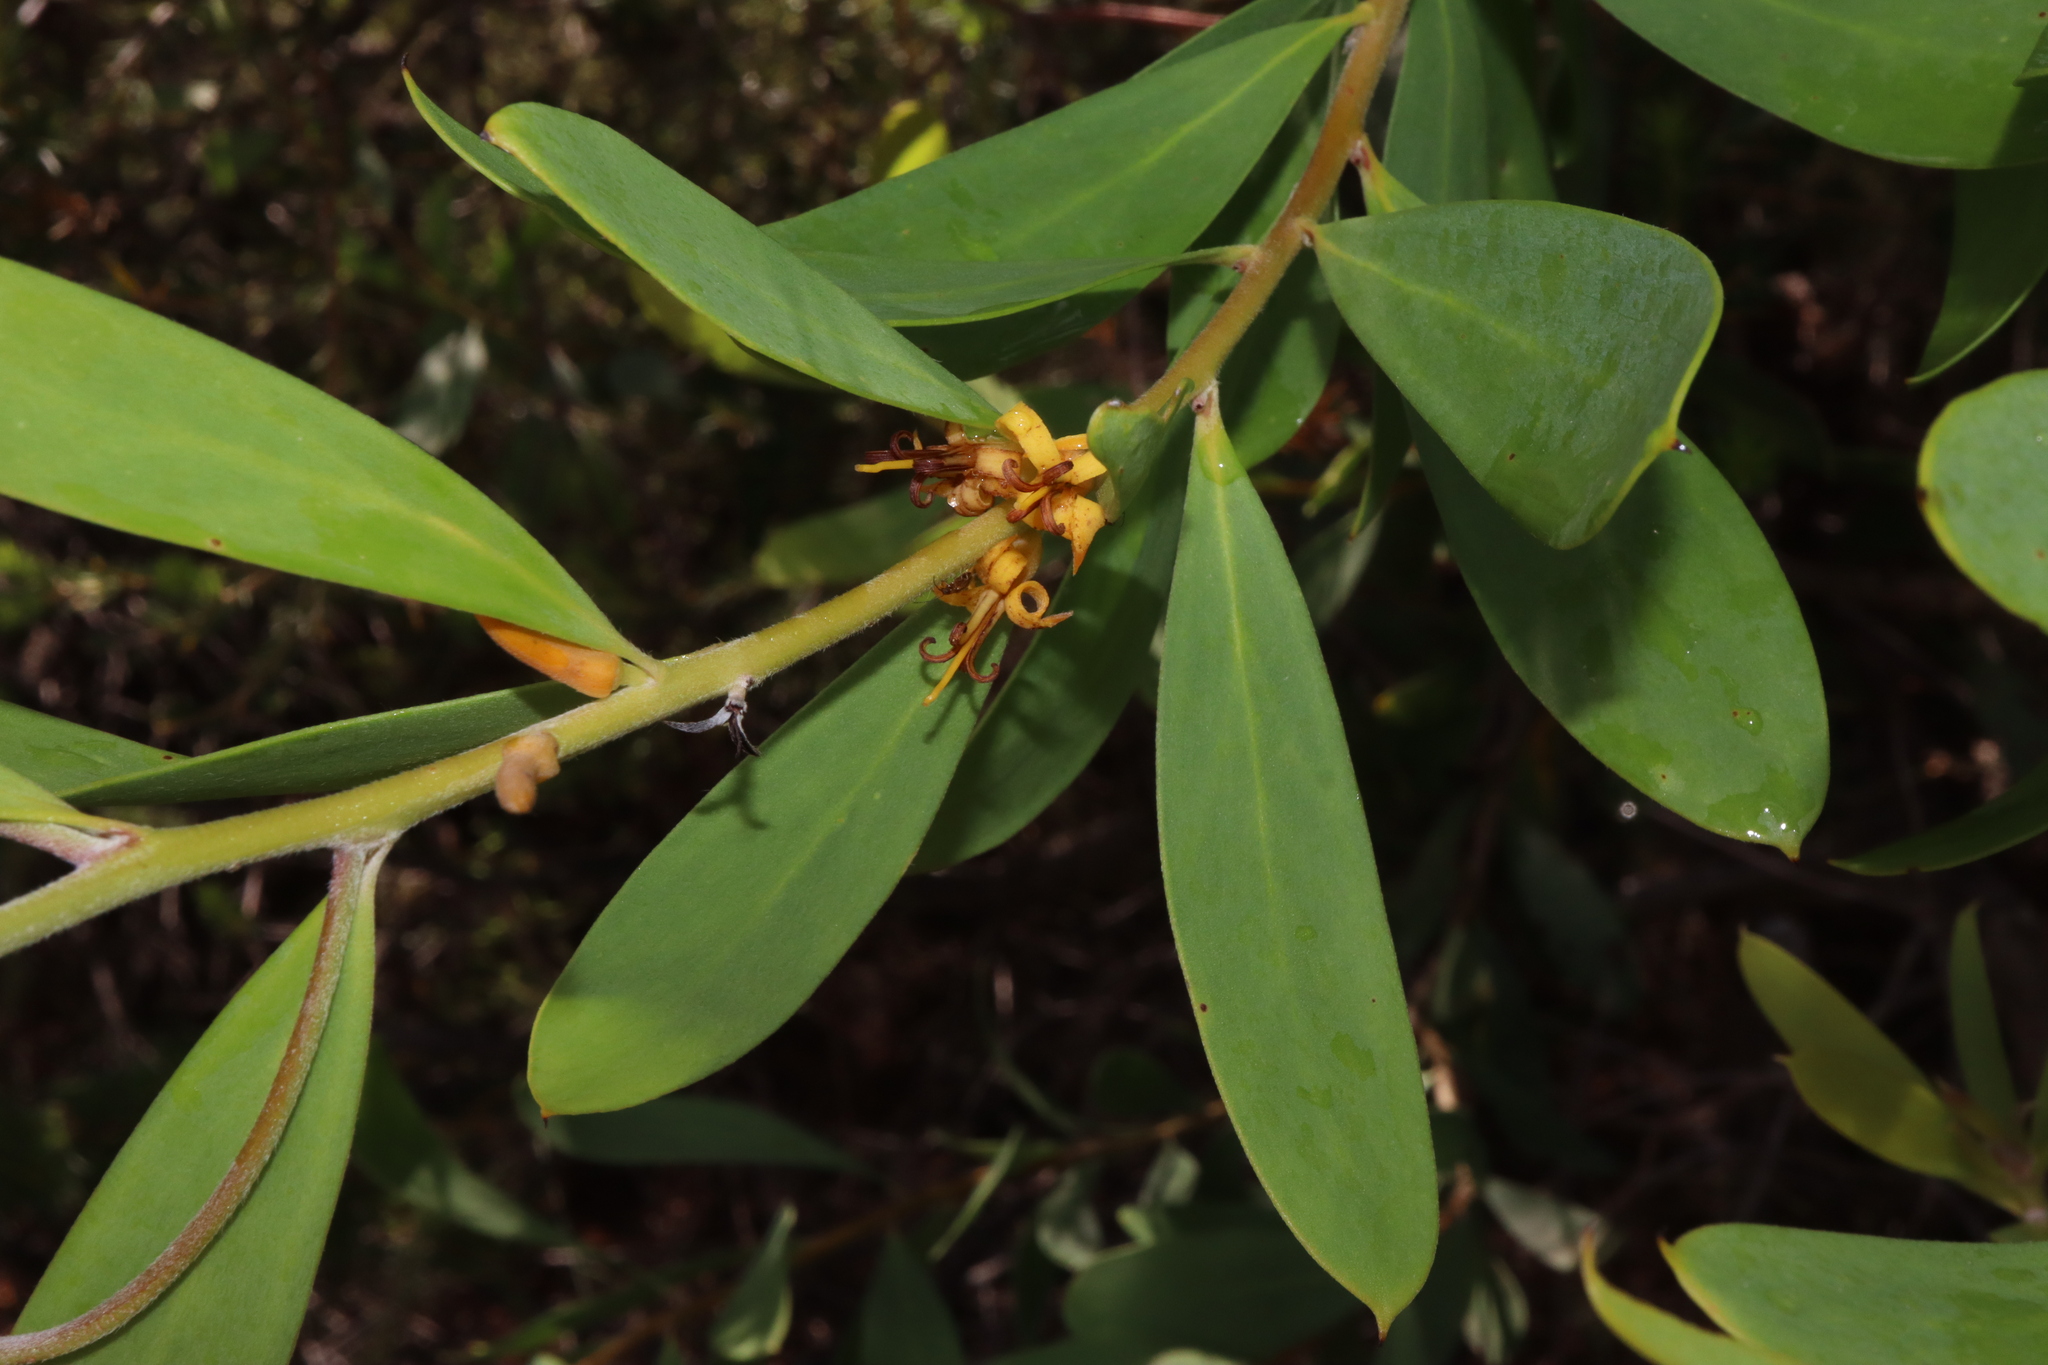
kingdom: Plantae
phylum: Tracheophyta
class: Magnoliopsida
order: Proteales
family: Proteaceae
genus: Persoonia
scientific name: Persoonia lanceolata
